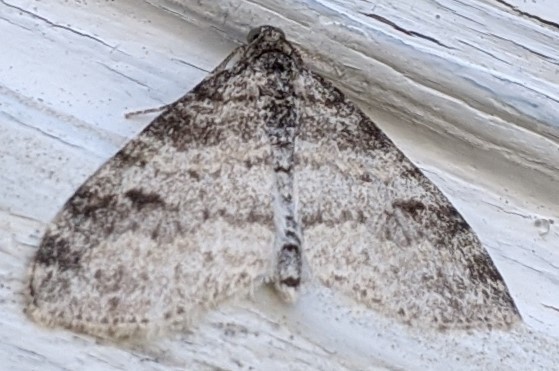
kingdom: Animalia
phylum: Arthropoda
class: Insecta
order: Lepidoptera
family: Geometridae
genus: Lobophora
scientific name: Lobophora nivigerata
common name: Powdered bigwing
